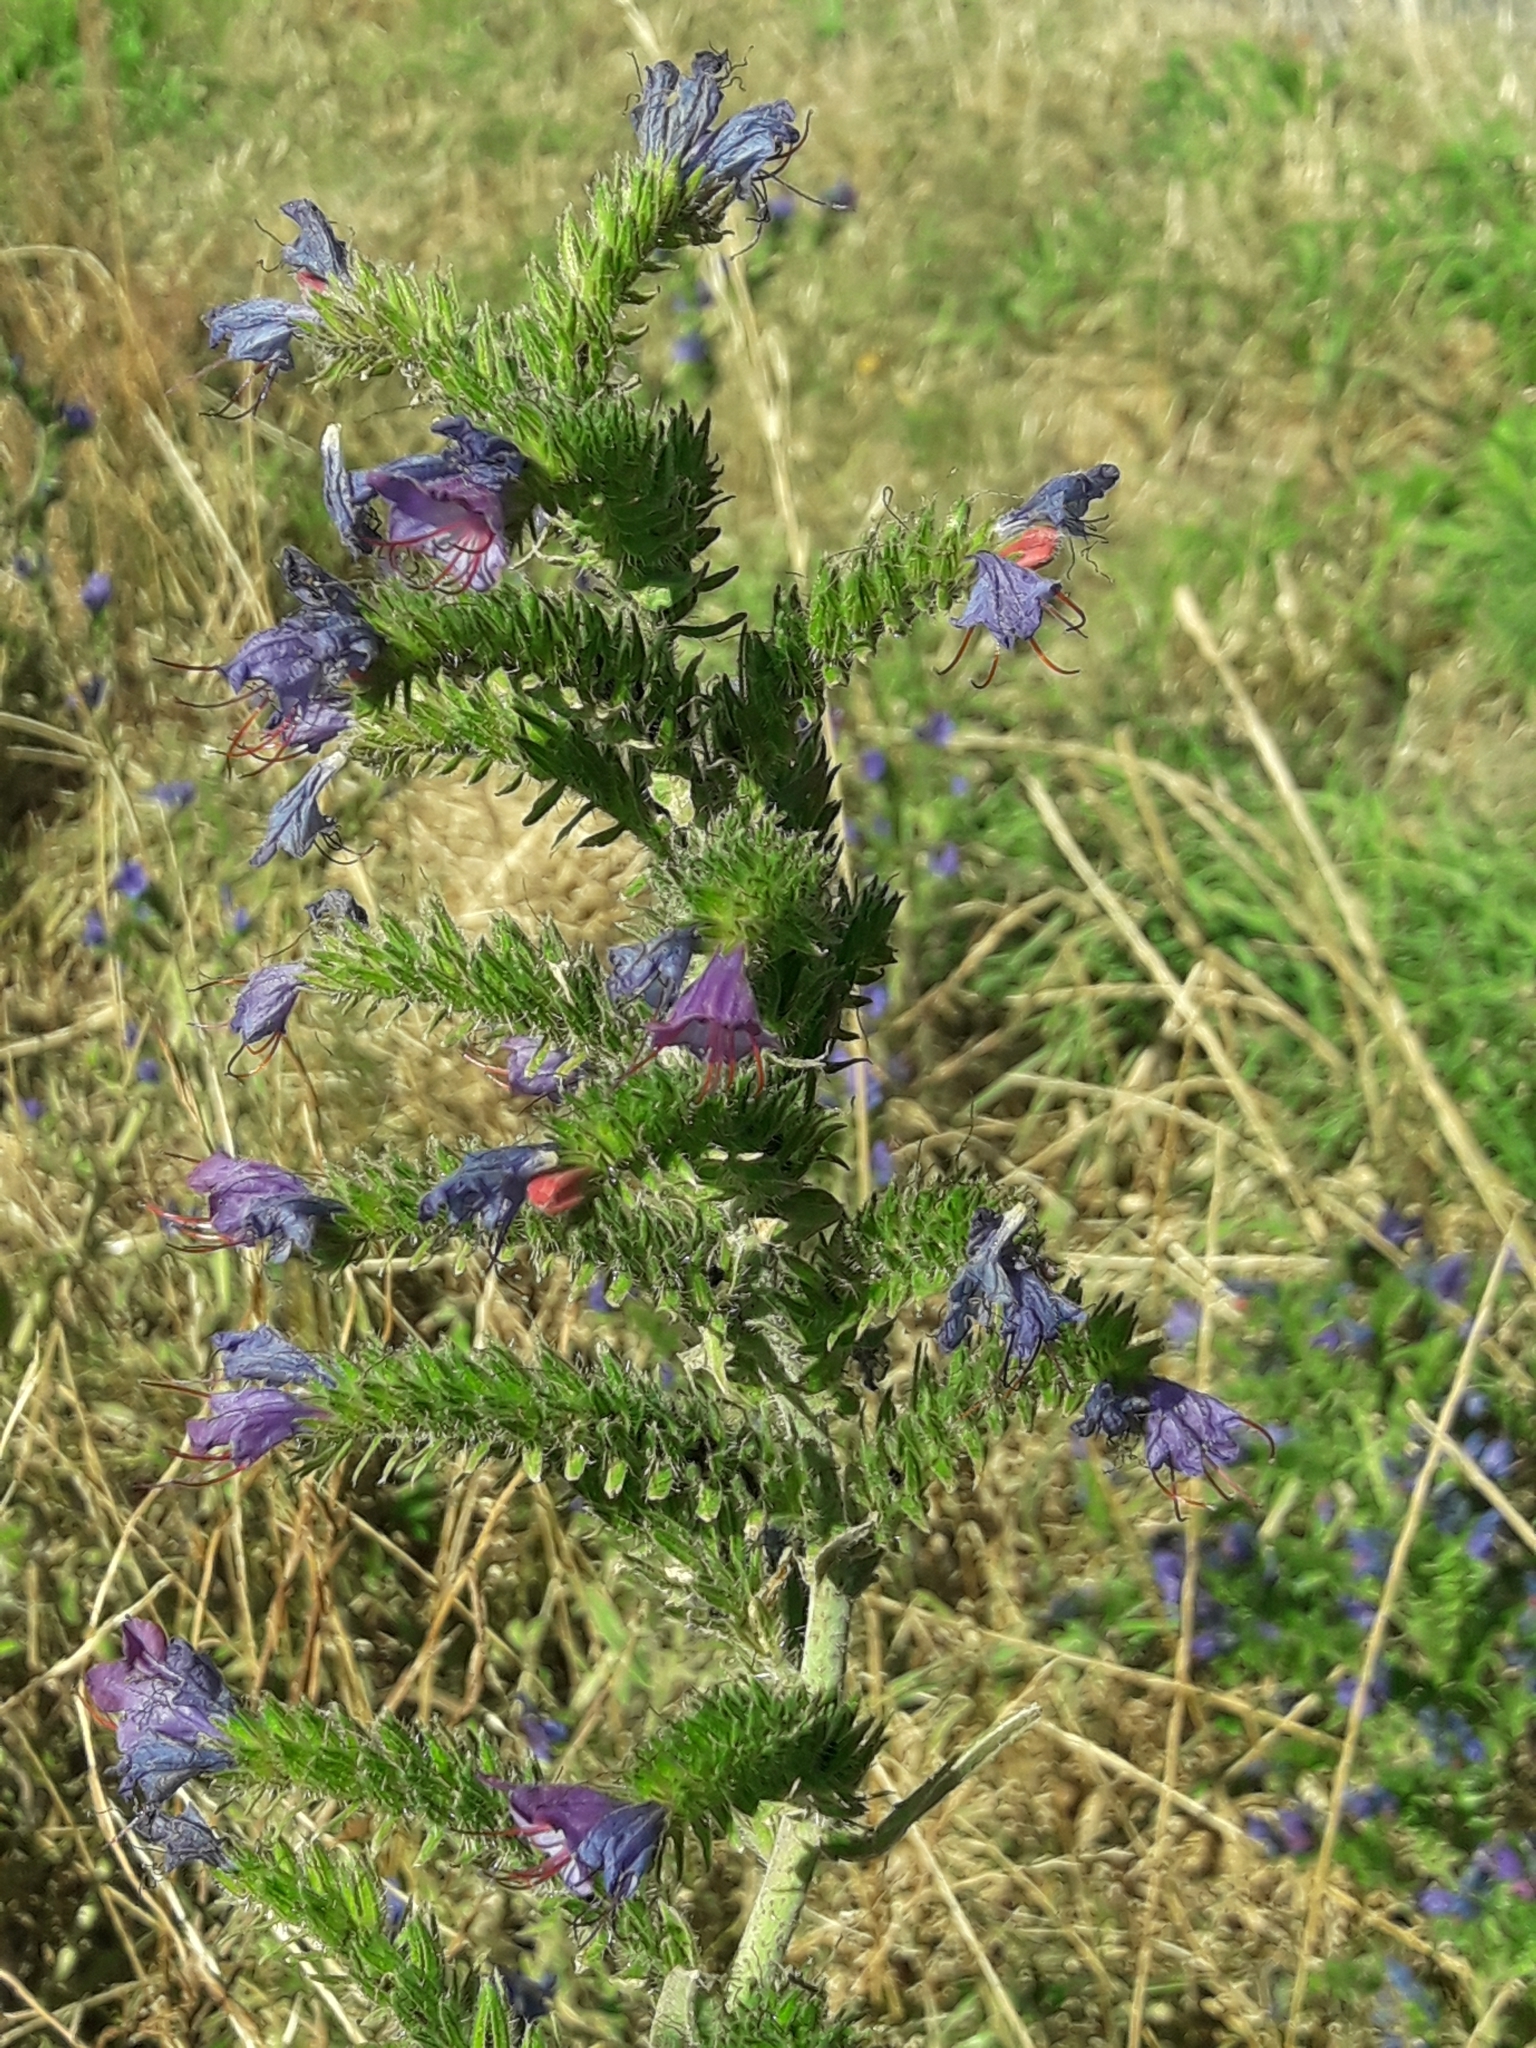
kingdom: Plantae
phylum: Tracheophyta
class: Magnoliopsida
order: Boraginales
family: Boraginaceae
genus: Echium
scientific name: Echium vulgare
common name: Common viper's bugloss
